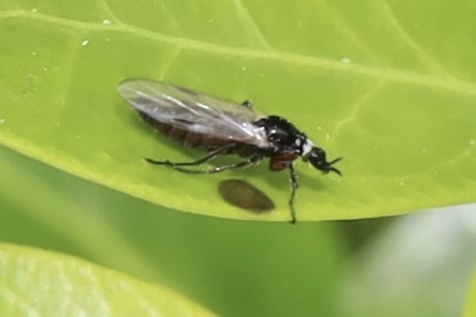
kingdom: Animalia
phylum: Arthropoda
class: Insecta
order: Diptera
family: Bibionidae
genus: Dilophus
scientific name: Dilophus
